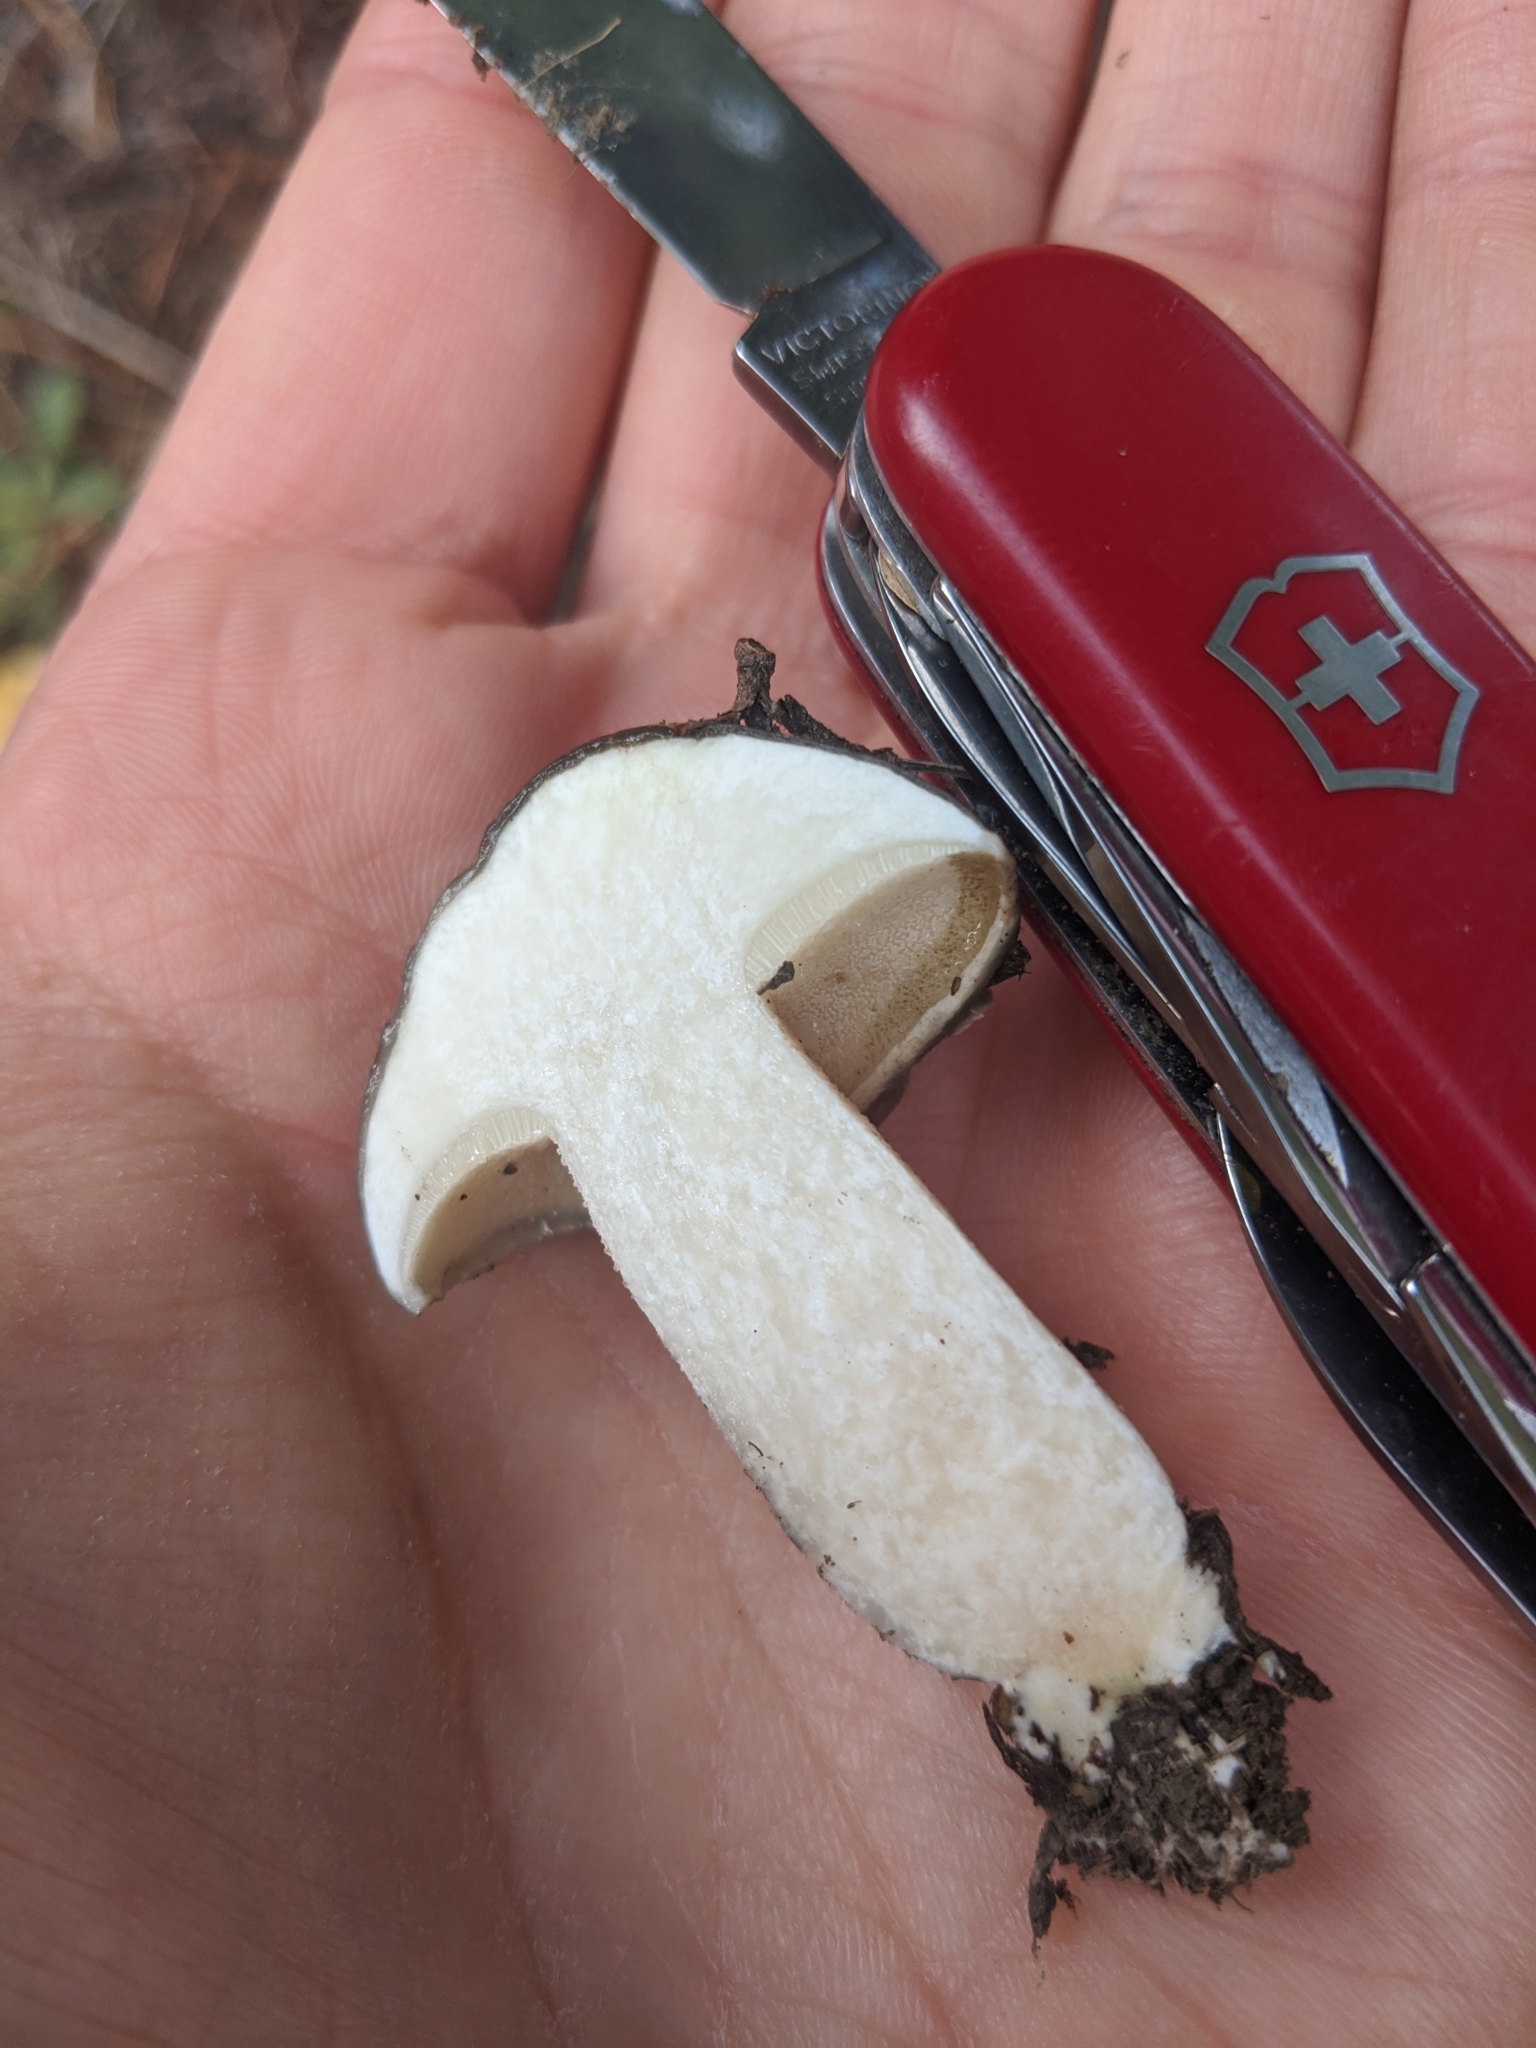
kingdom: Fungi
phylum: Basidiomycota
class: Agaricomycetes
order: Boletales
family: Suillaceae
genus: Suillus
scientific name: Suillus pungens
